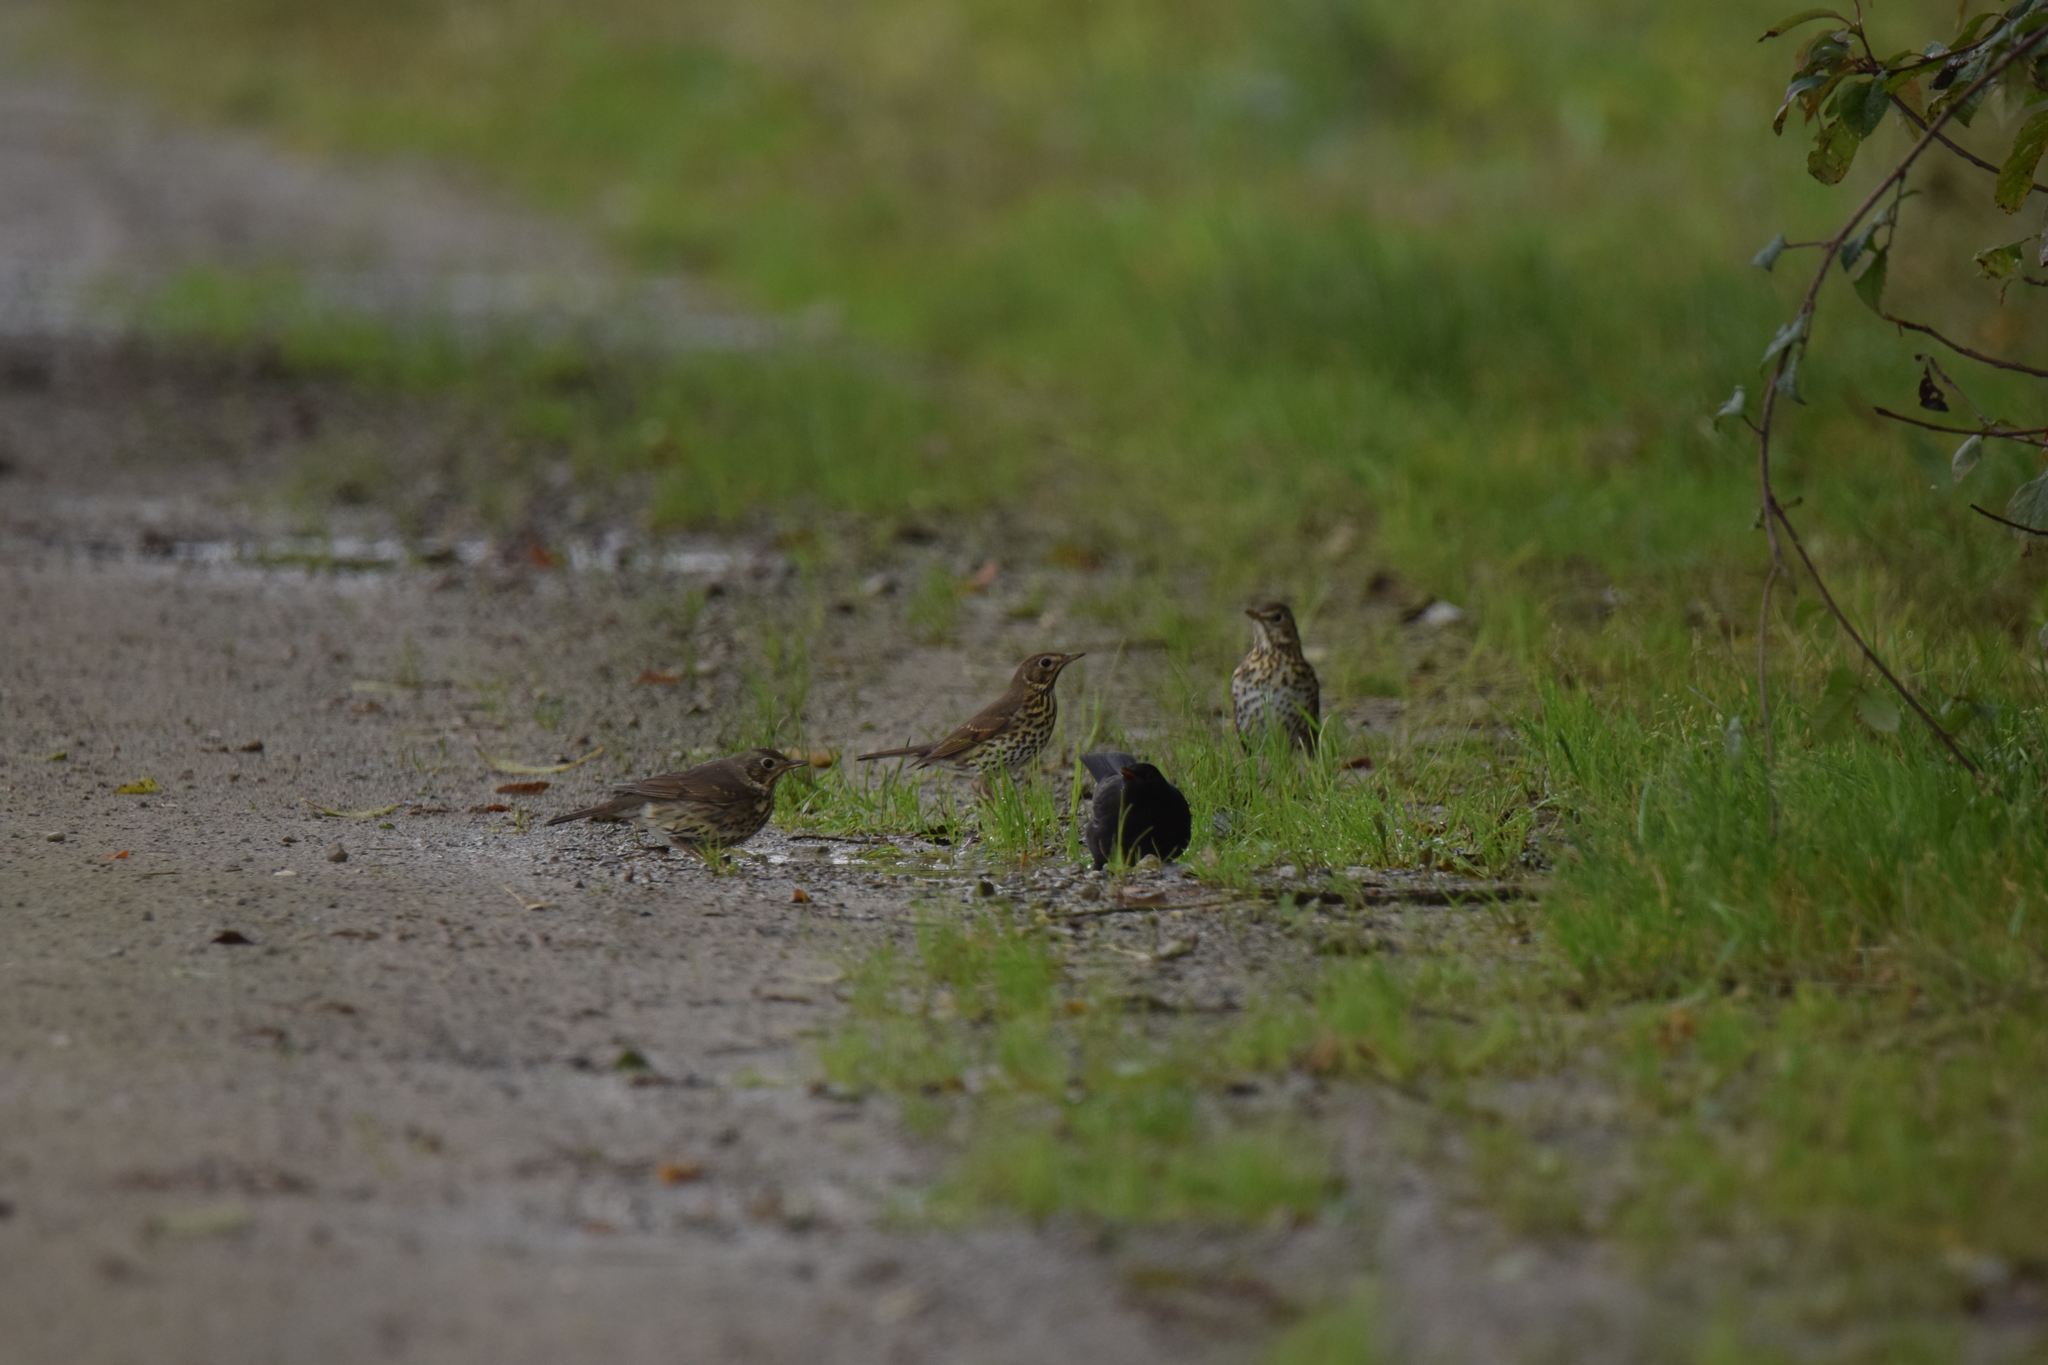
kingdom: Animalia
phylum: Chordata
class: Aves
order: Passeriformes
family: Turdidae
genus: Turdus
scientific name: Turdus philomelos
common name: Song thrush
